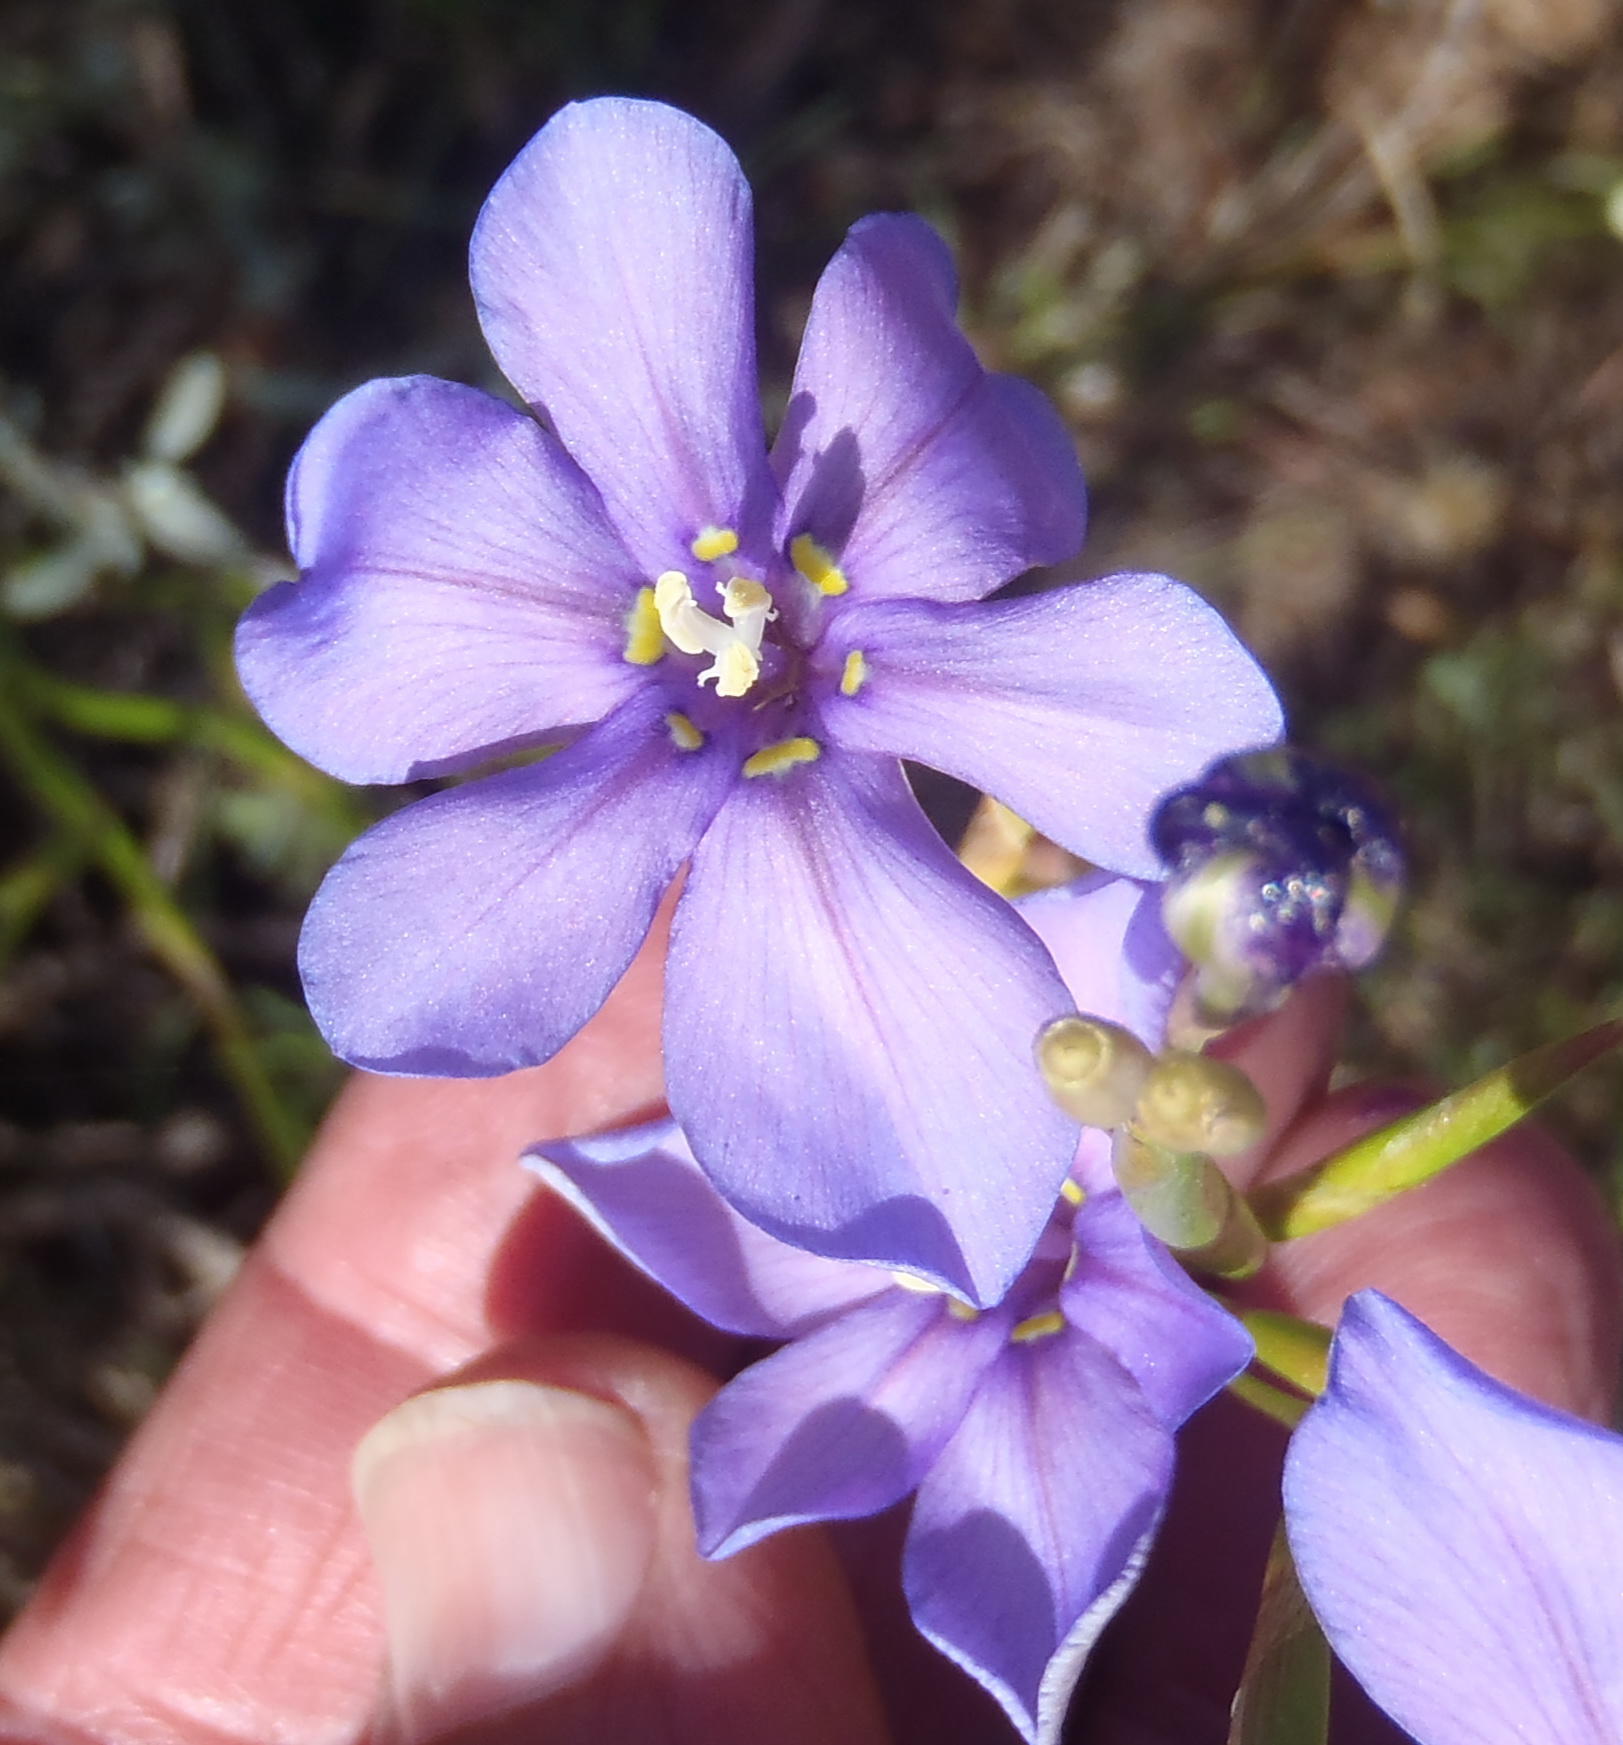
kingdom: Plantae
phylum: Tracheophyta
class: Liliopsida
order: Asparagales
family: Iridaceae
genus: Moraea
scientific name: Moraea polyanthos
